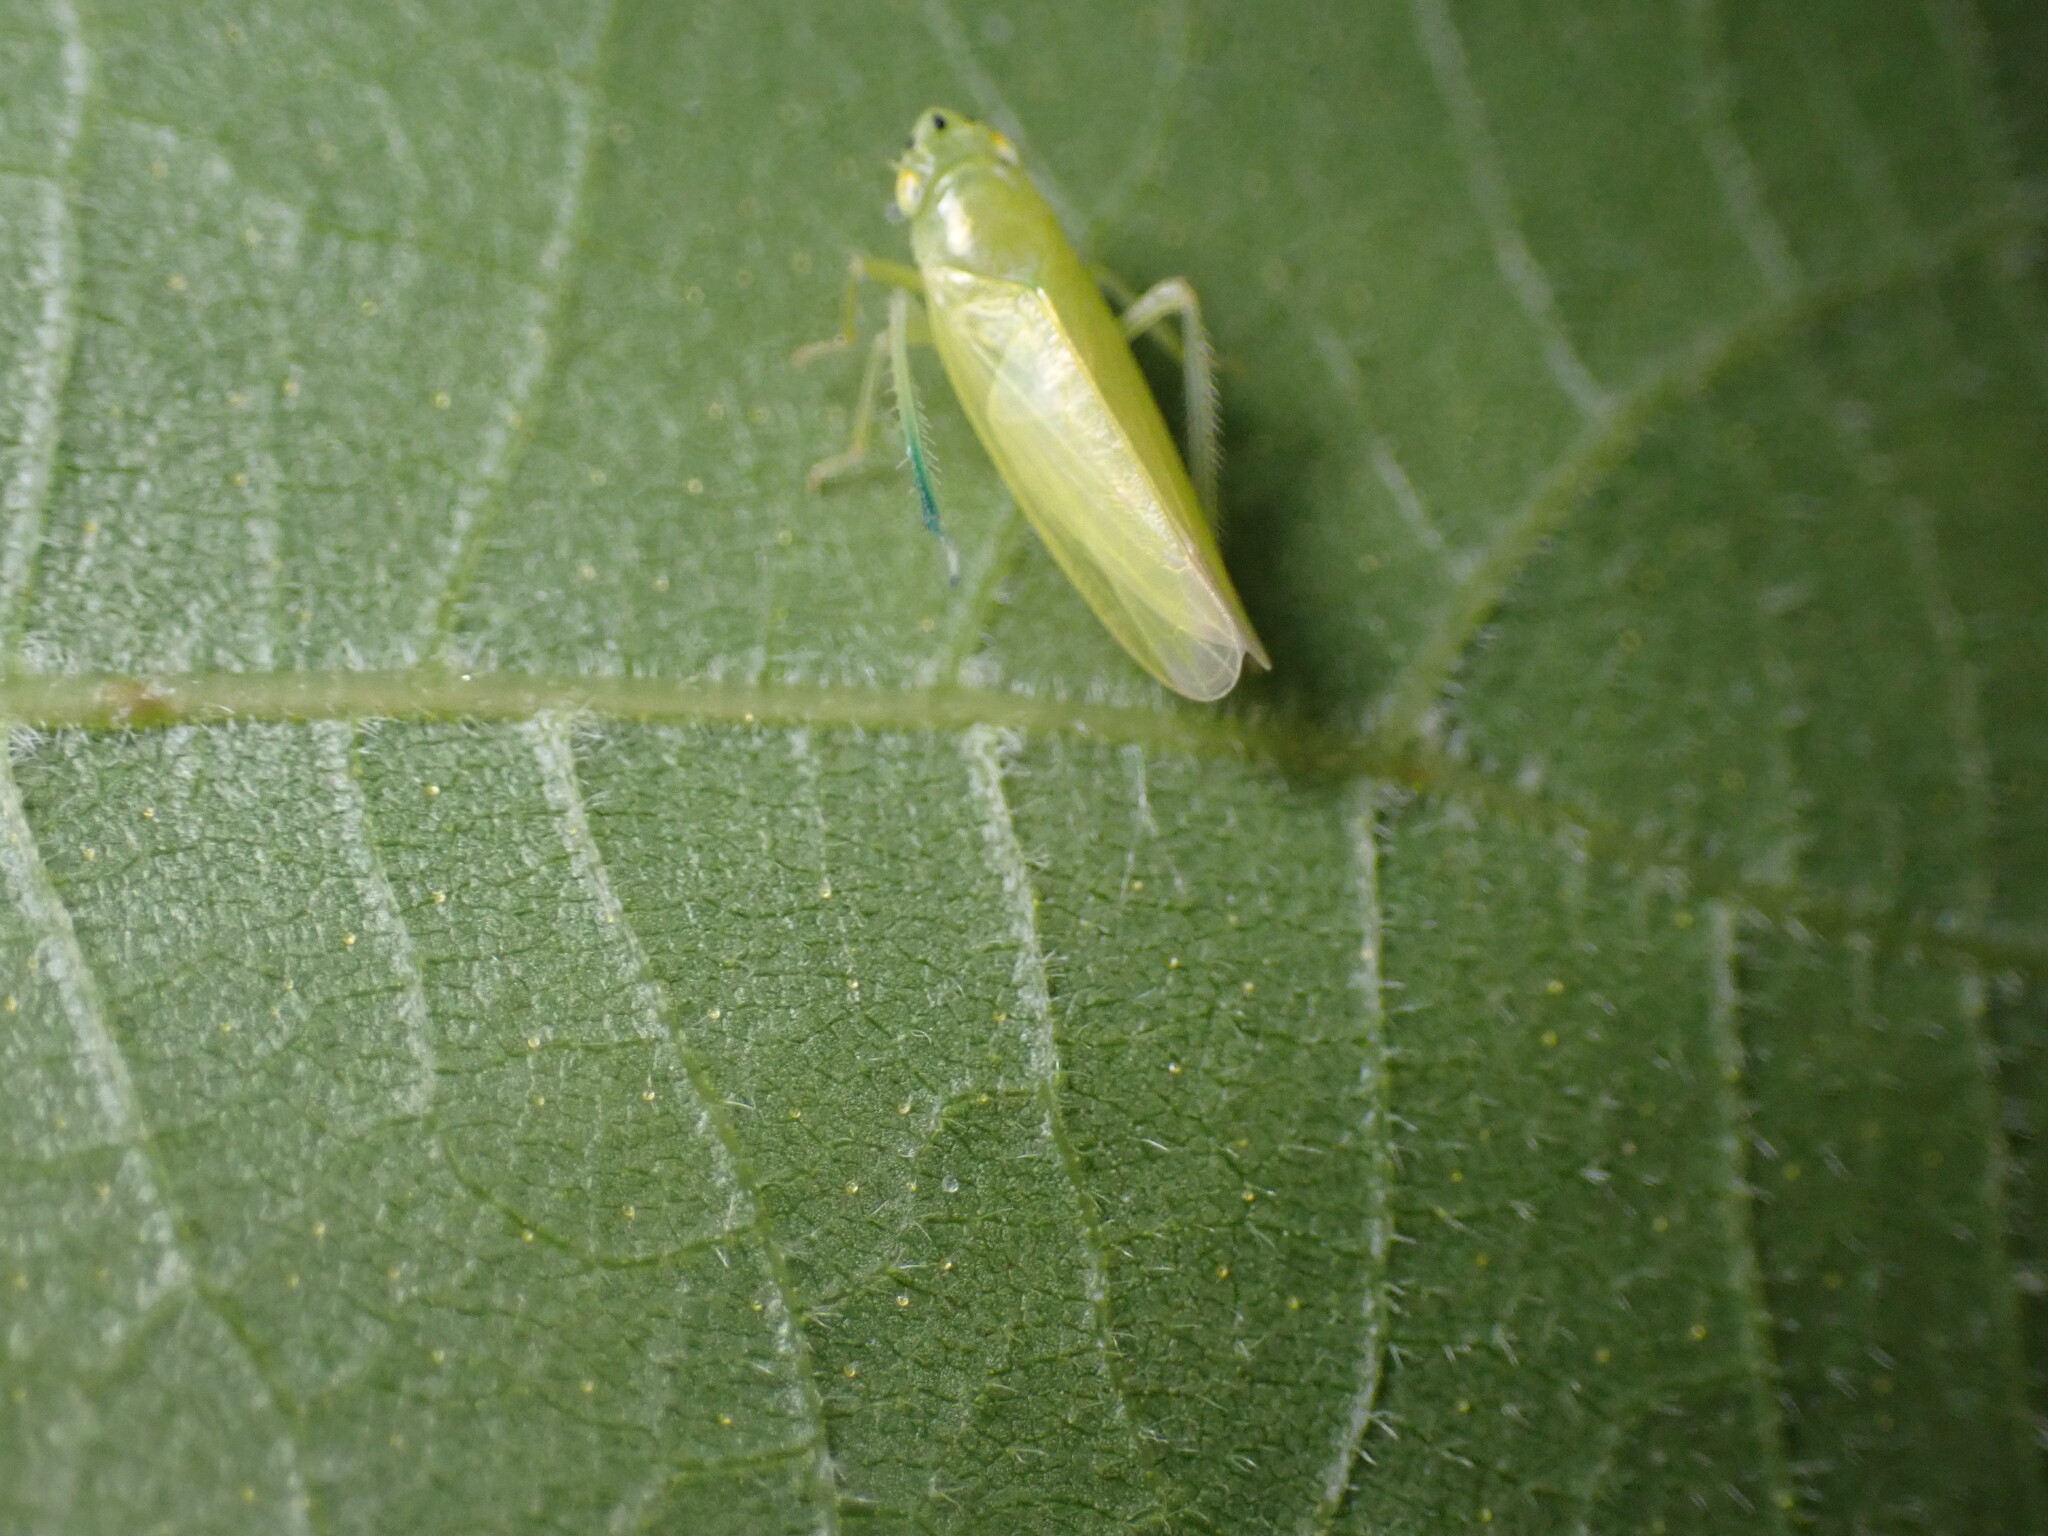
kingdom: Animalia
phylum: Arthropoda
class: Insecta
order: Hemiptera
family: Cicadellidae
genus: Pagaronia
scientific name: Pagaronia minor
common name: Leafhopper
